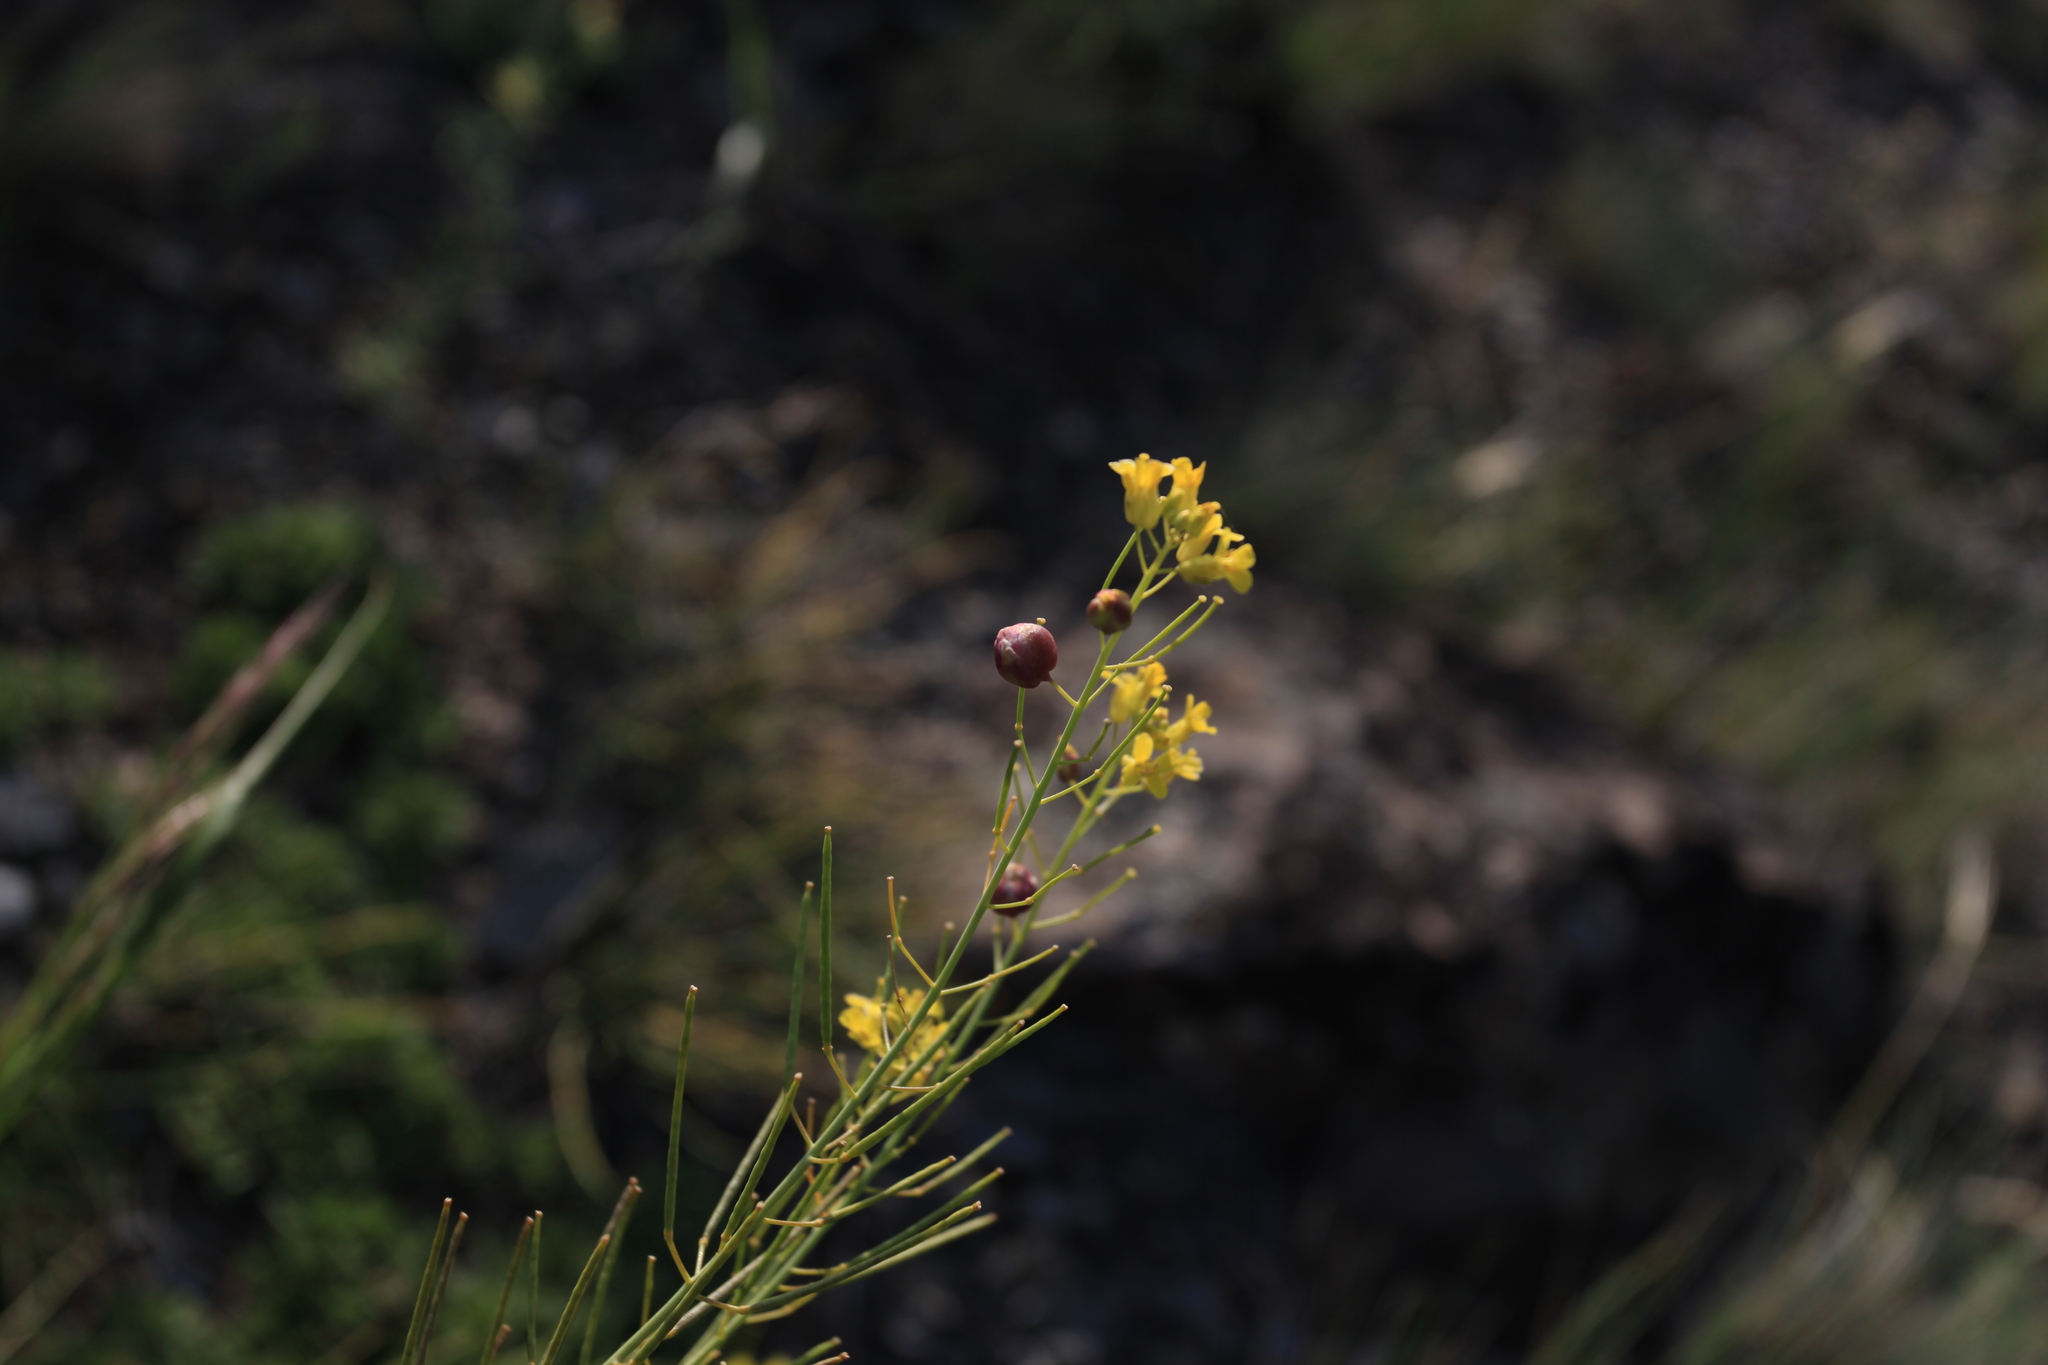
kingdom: Plantae
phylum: Tracheophyta
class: Magnoliopsida
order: Brassicales
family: Brassicaceae
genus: Sisymbrium
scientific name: Sisymbrium polymorphum
